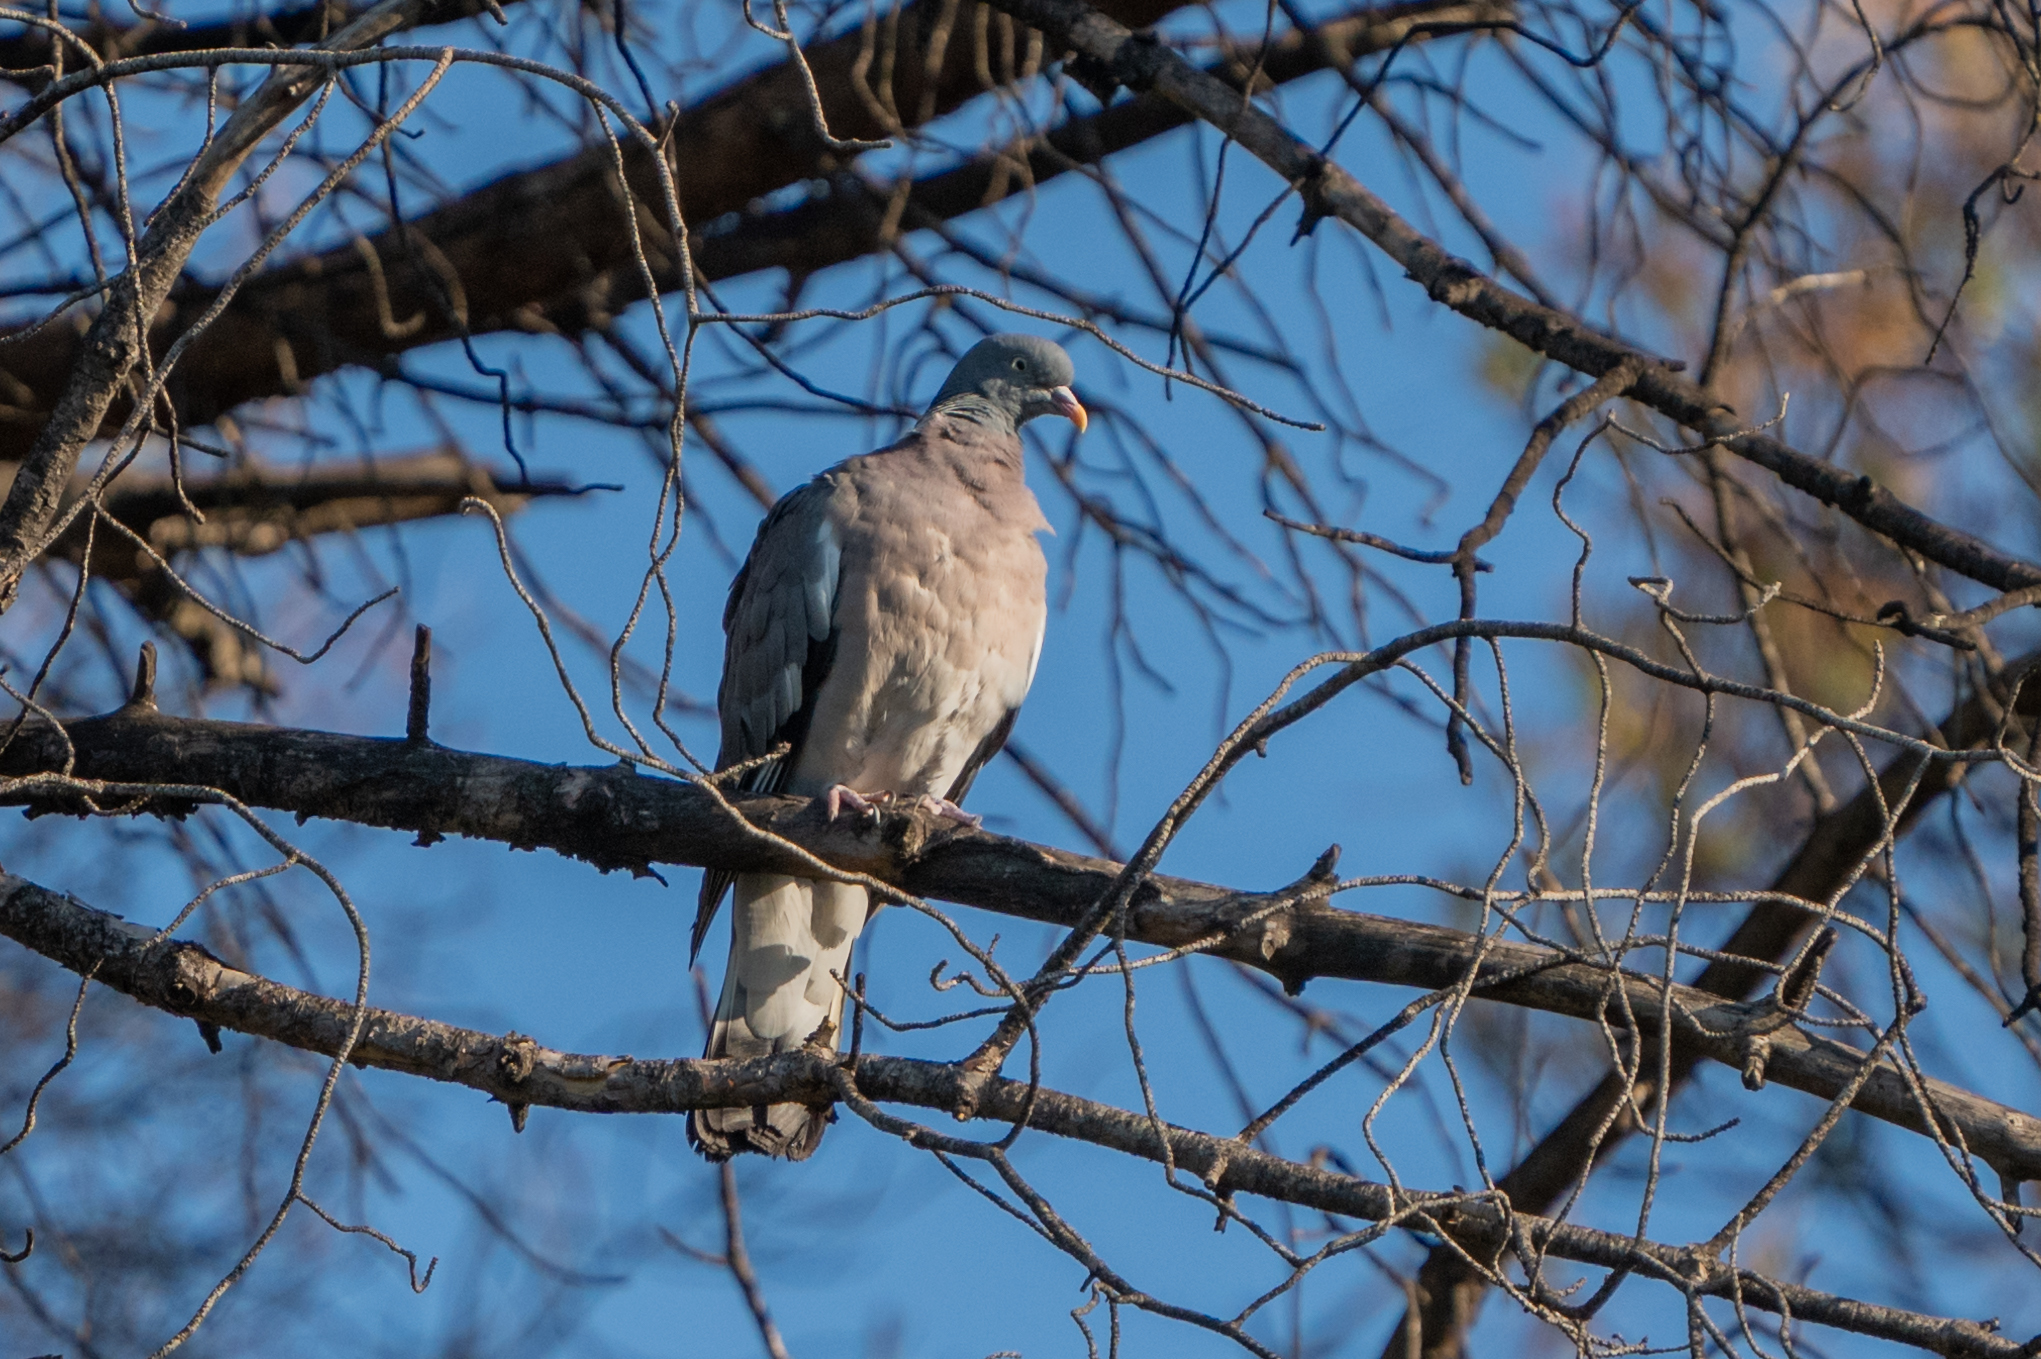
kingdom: Animalia
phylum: Chordata
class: Aves
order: Columbiformes
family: Columbidae
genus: Columba
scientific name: Columba palumbus
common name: Common wood pigeon
